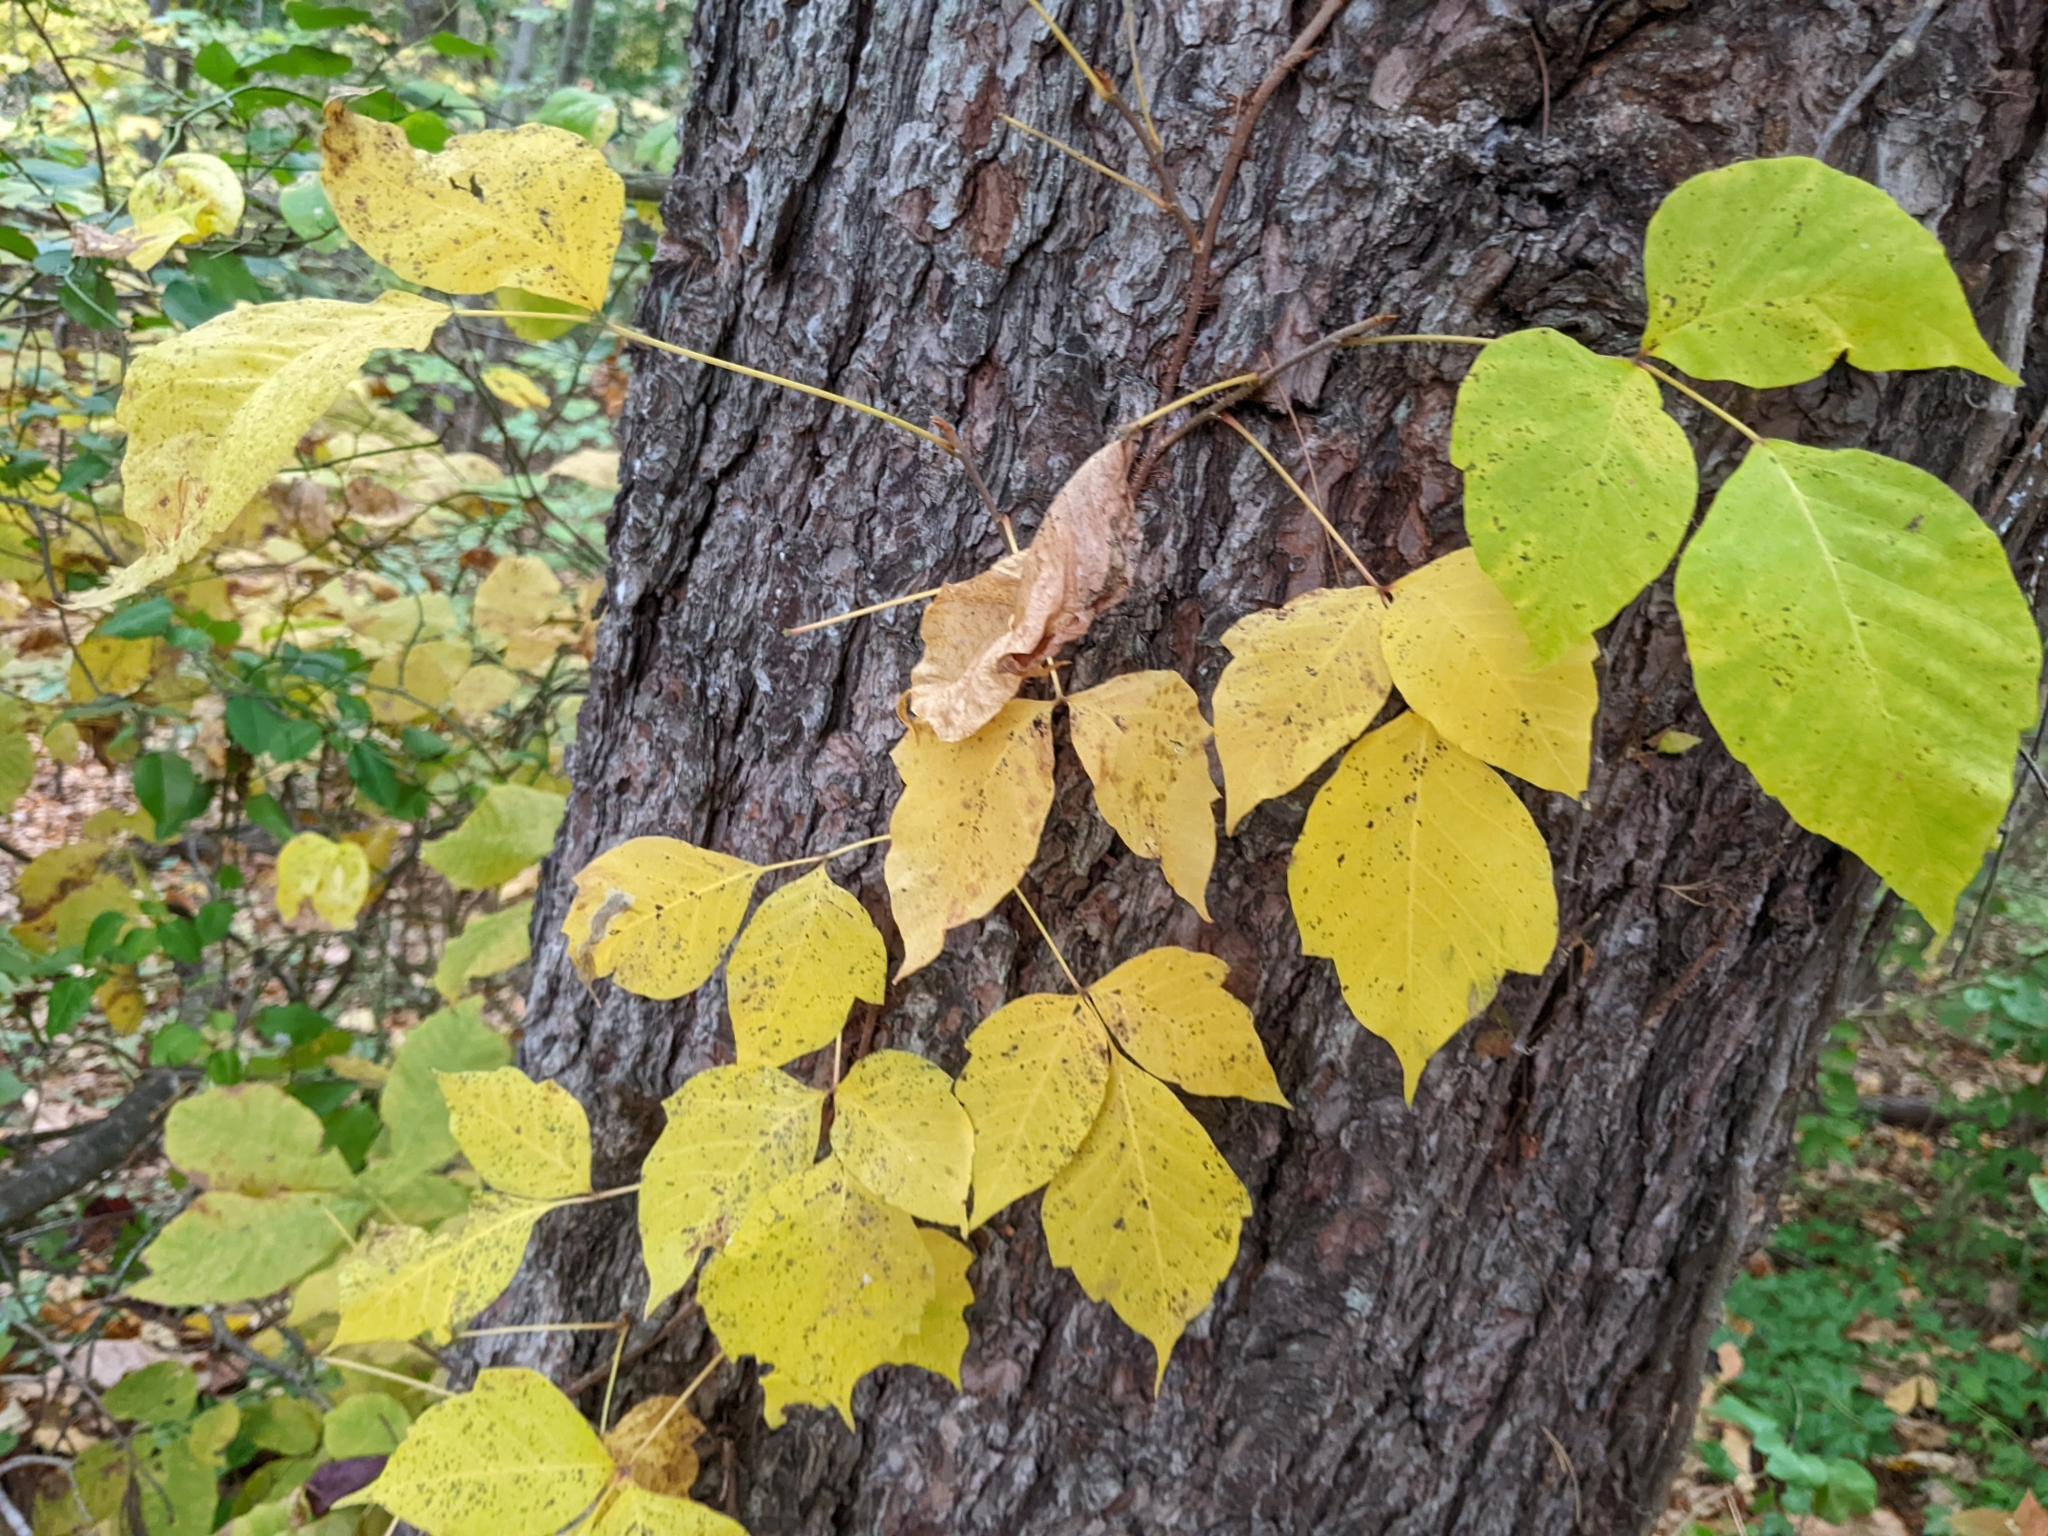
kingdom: Plantae
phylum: Tracheophyta
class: Magnoliopsida
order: Sapindales
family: Anacardiaceae
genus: Toxicodendron
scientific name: Toxicodendron radicans
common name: Poison ivy
